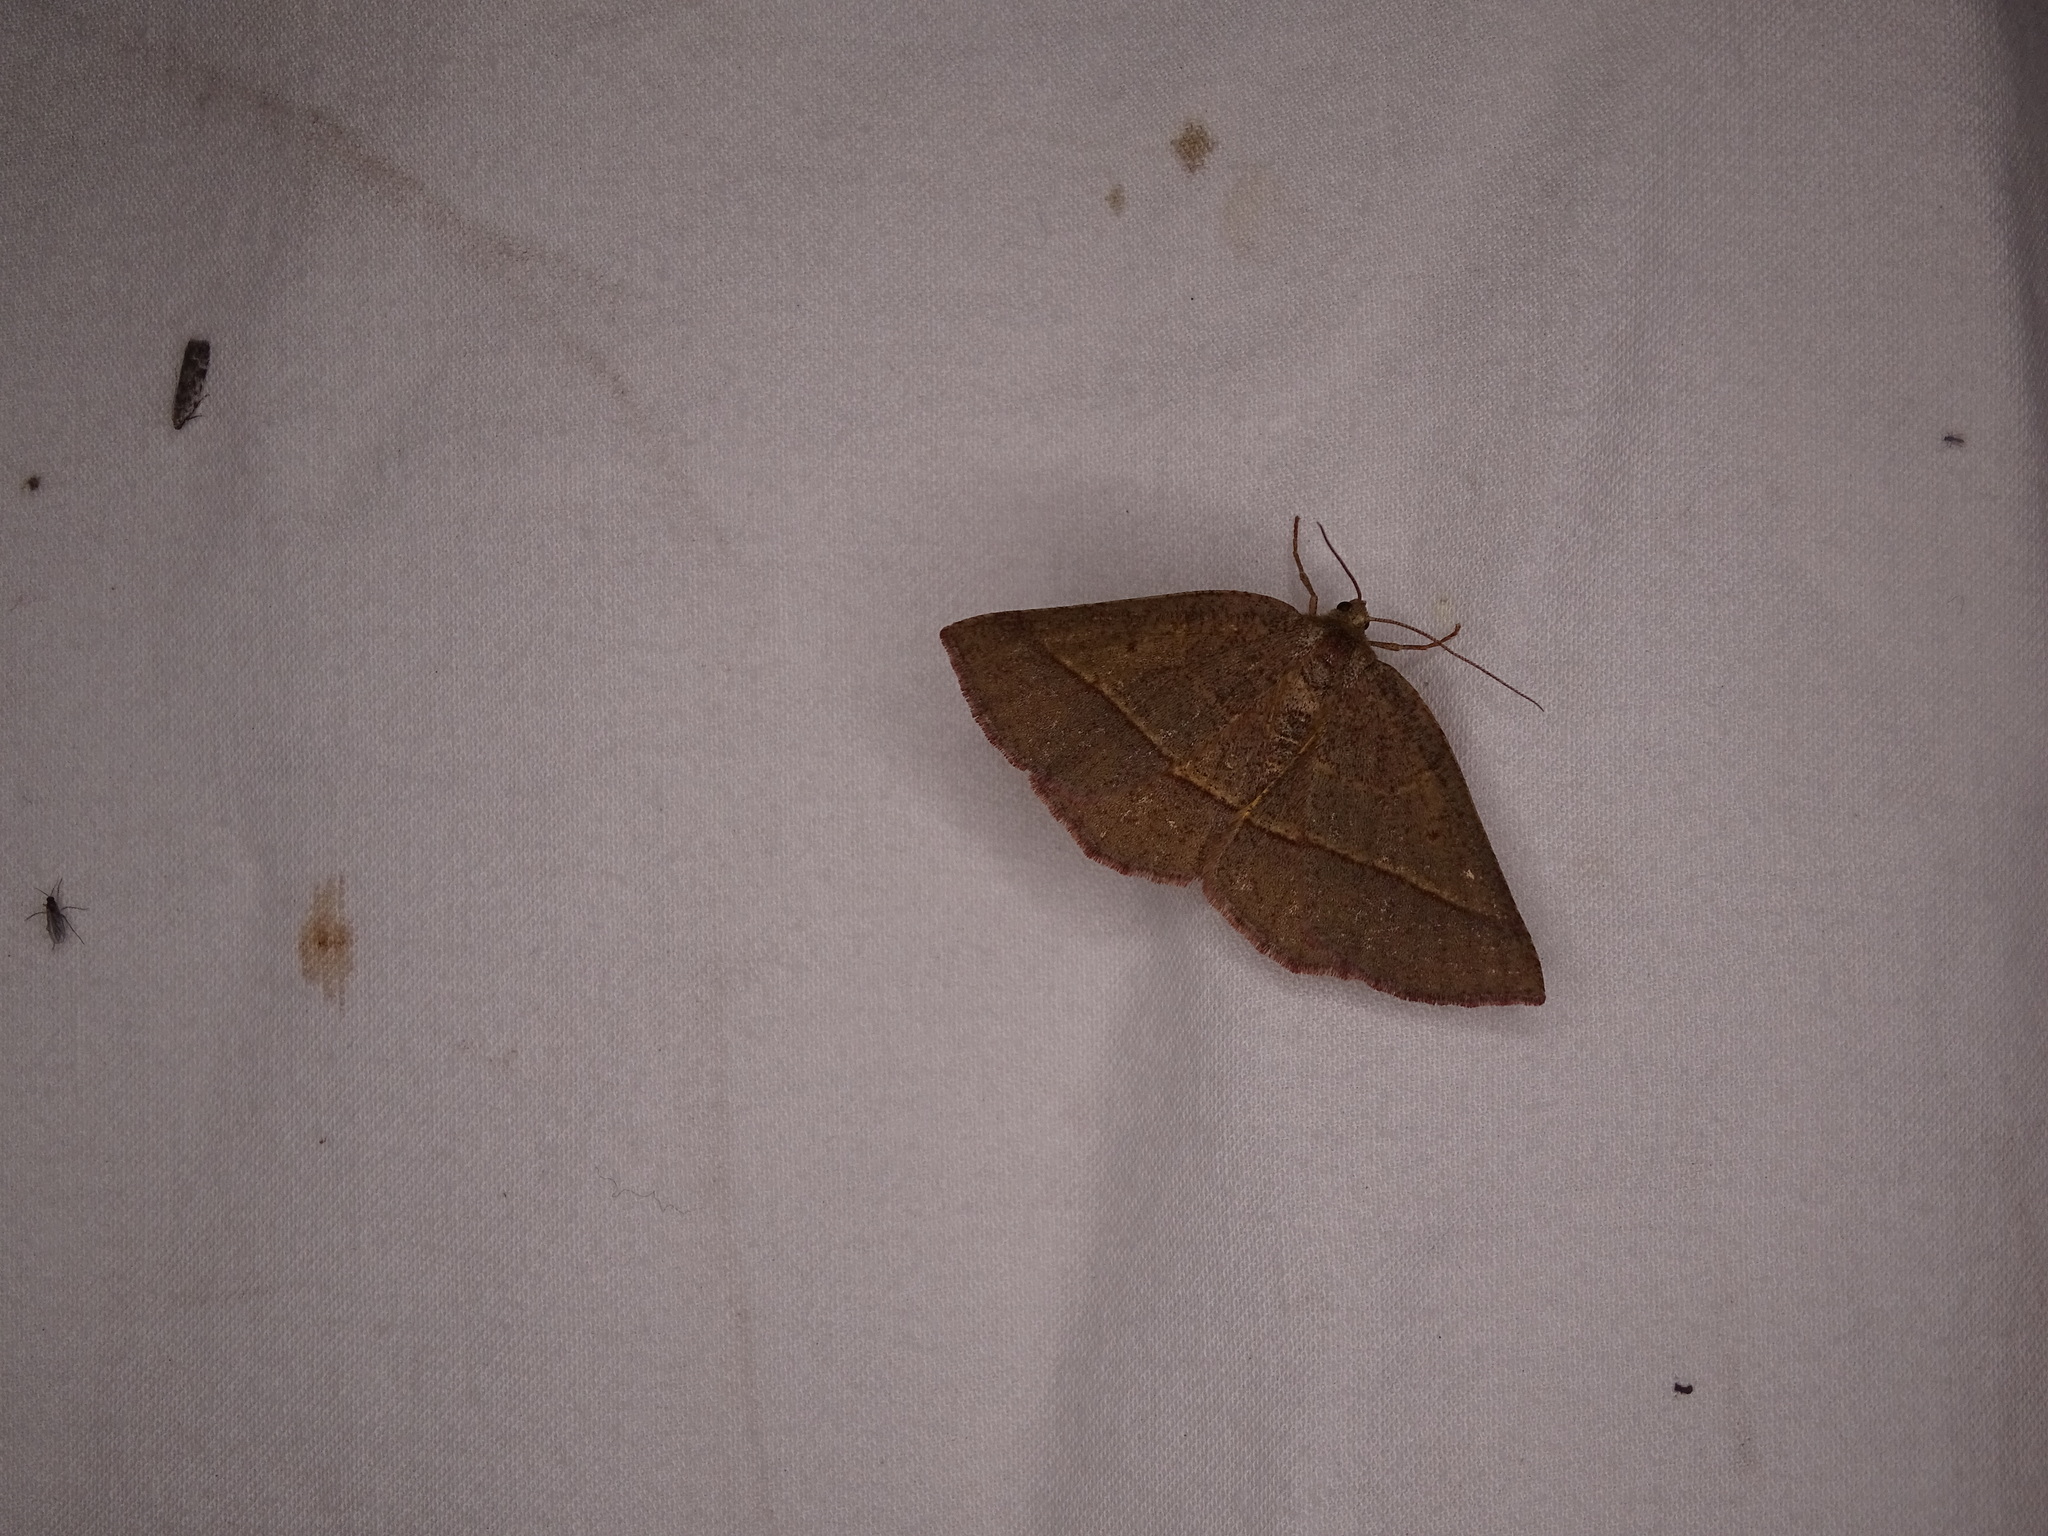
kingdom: Animalia
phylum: Arthropoda
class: Insecta
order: Lepidoptera
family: Geometridae
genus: Metarranthis
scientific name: Metarranthis obfirmaria
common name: Yellow-washed metarranthis
